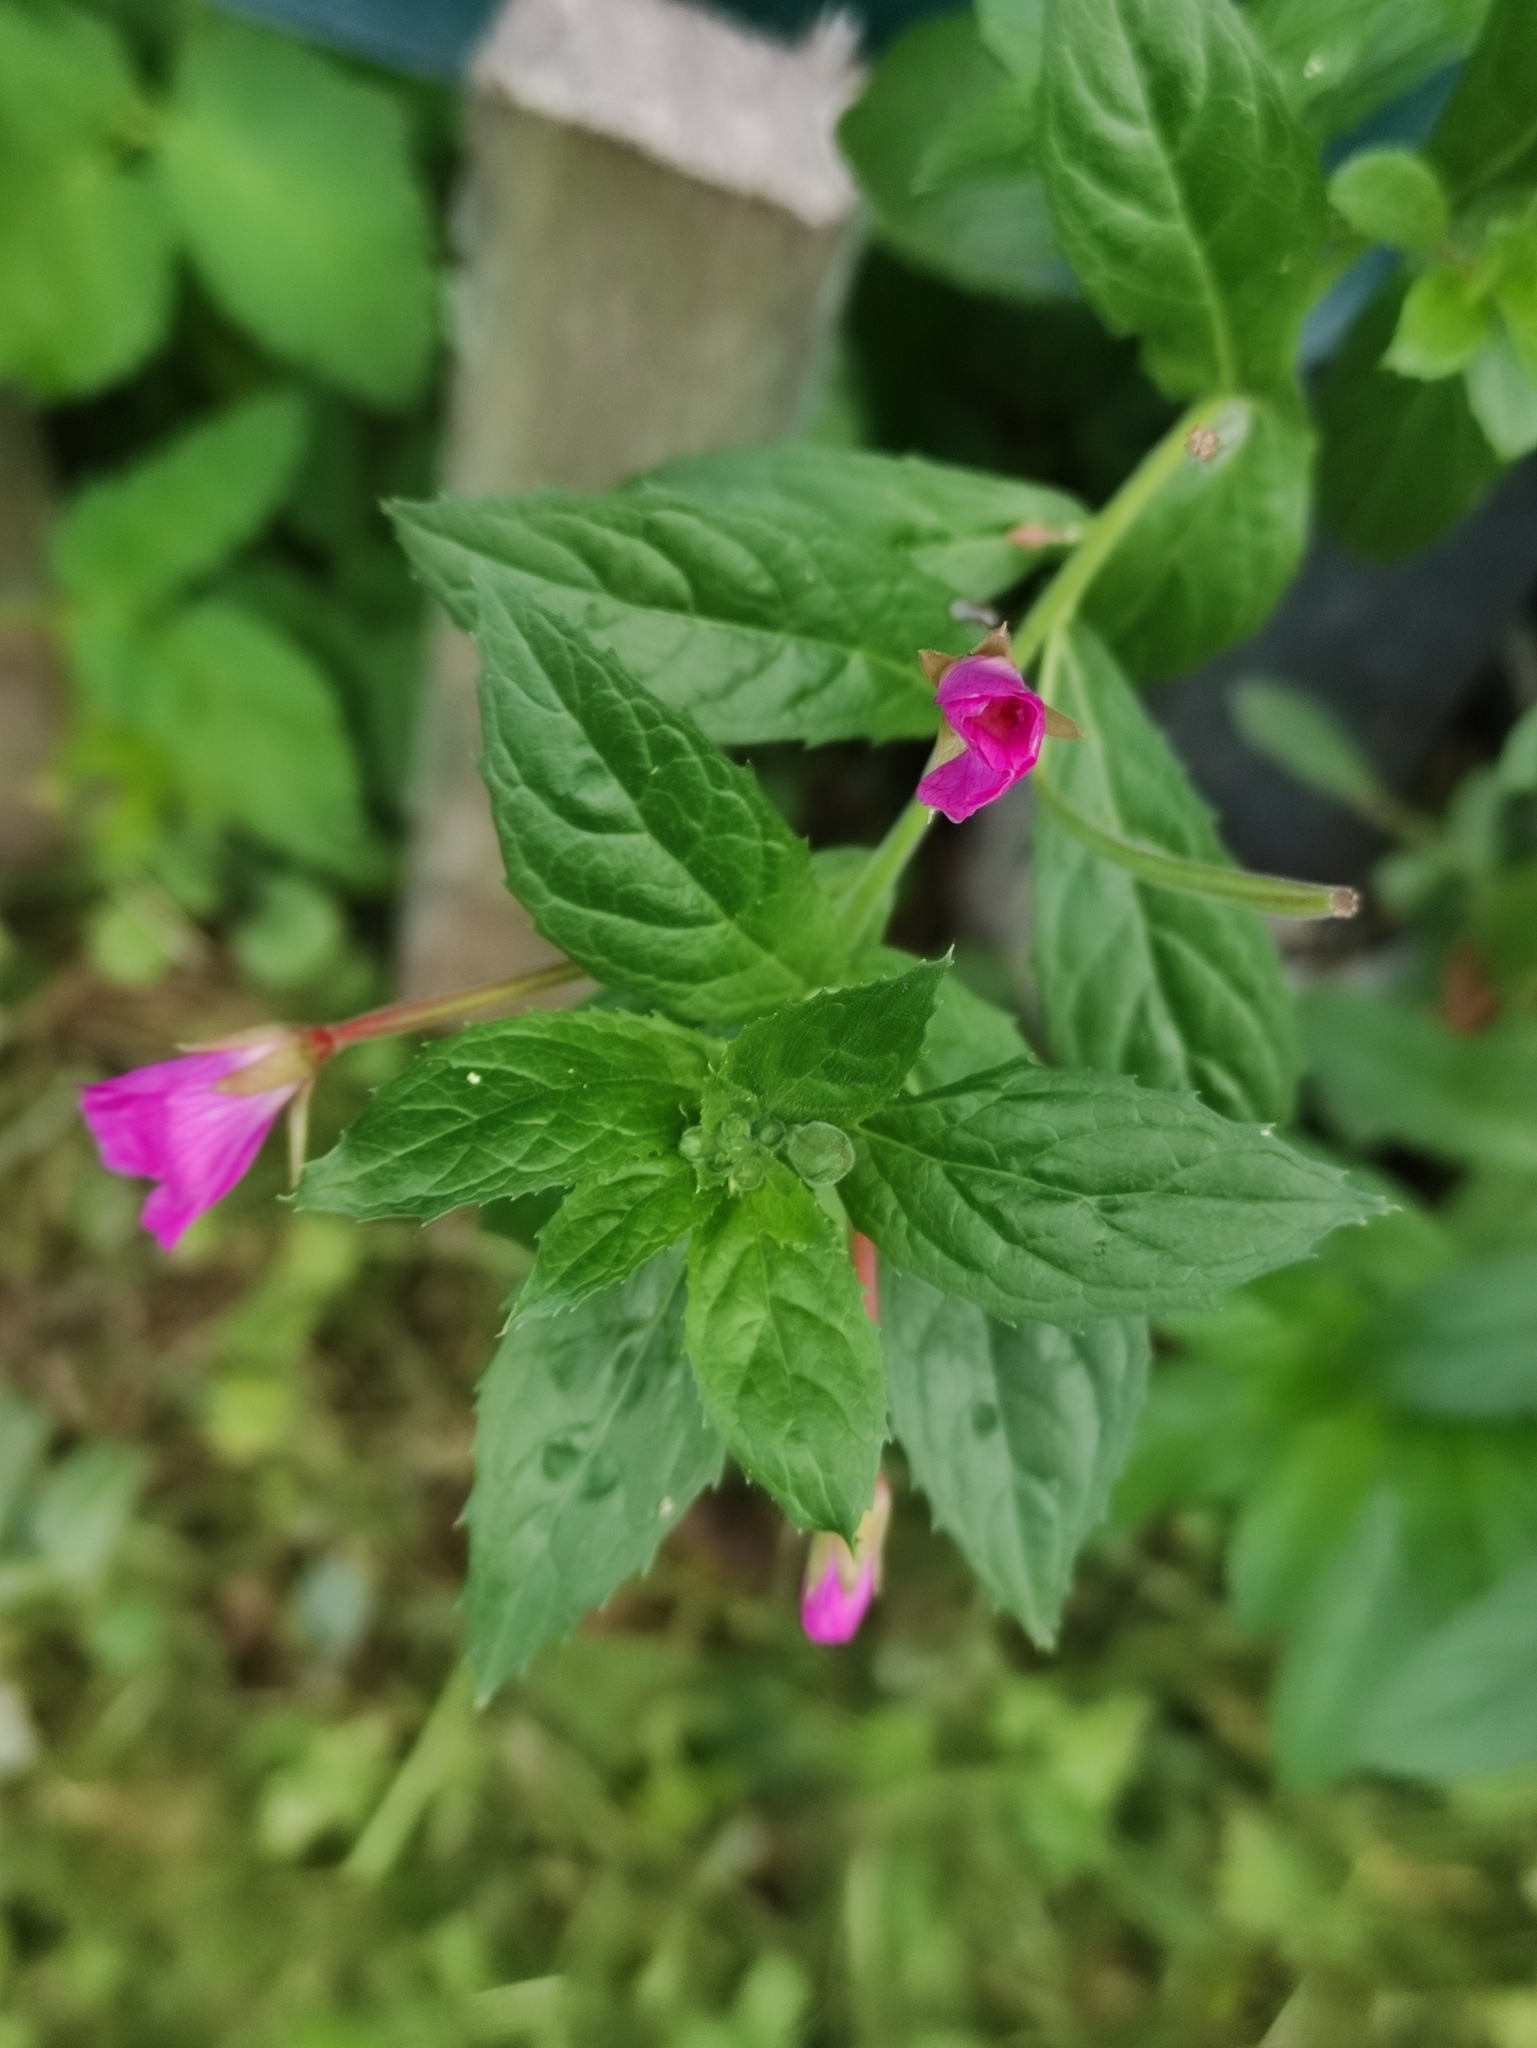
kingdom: Plantae
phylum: Tracheophyta
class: Magnoliopsida
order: Myrtales
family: Onagraceae
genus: Epilobium
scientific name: Epilobium hirsutum
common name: Great willowherb
